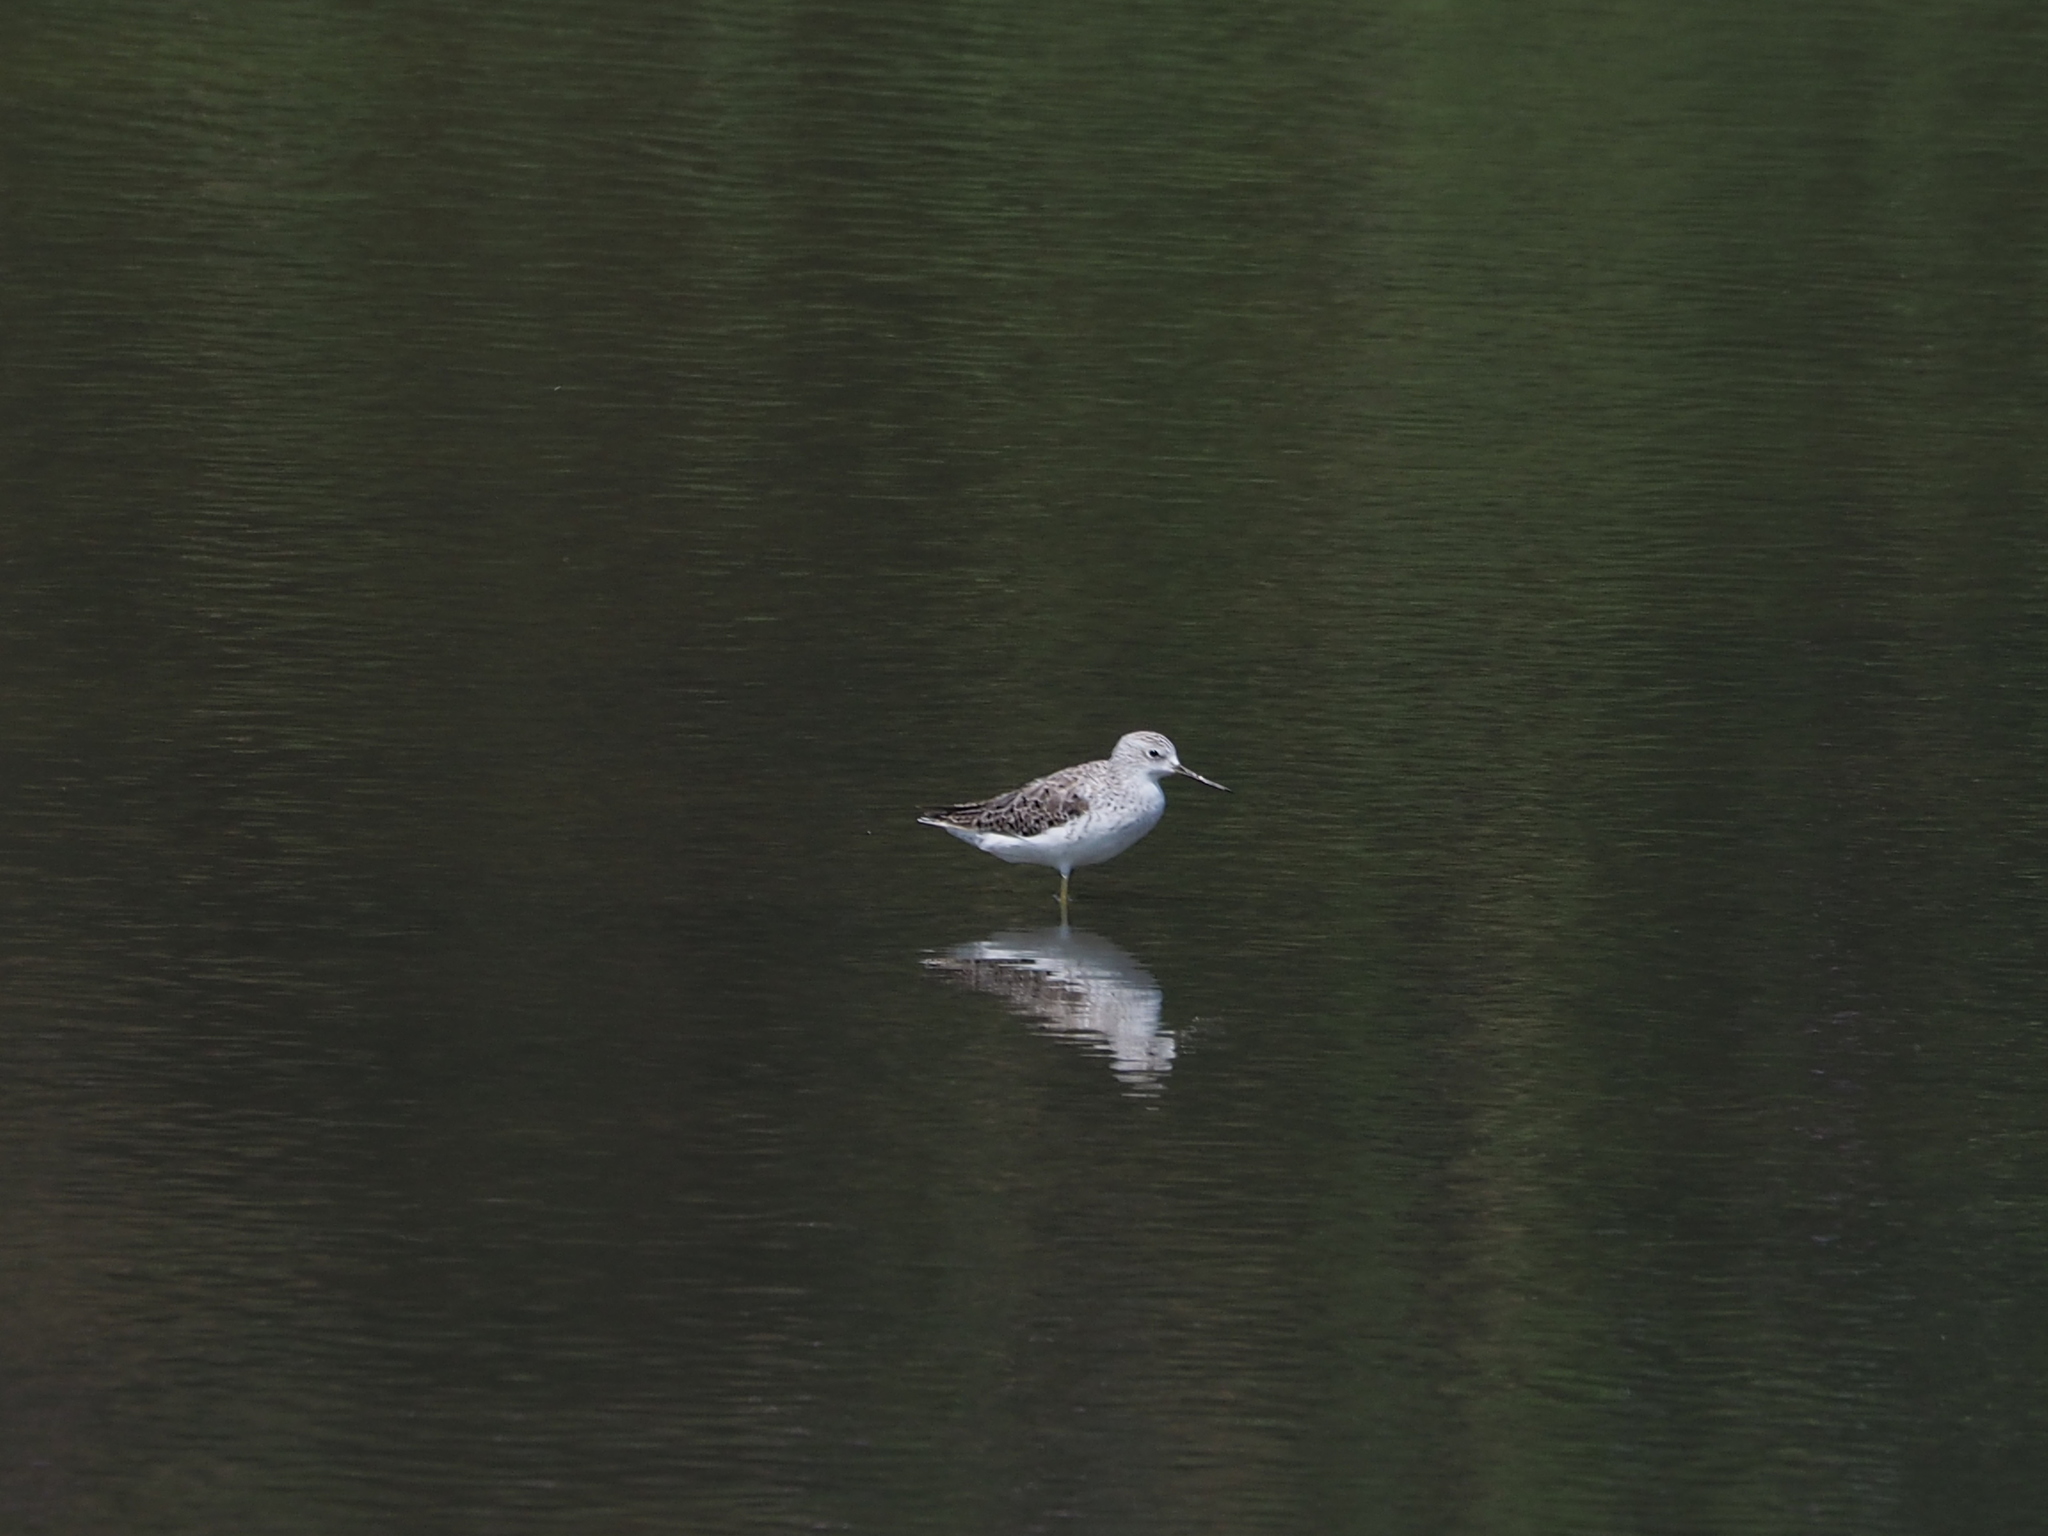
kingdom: Animalia
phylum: Chordata
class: Aves
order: Charadriiformes
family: Scolopacidae
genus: Tringa
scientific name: Tringa nebularia
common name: Common greenshank
